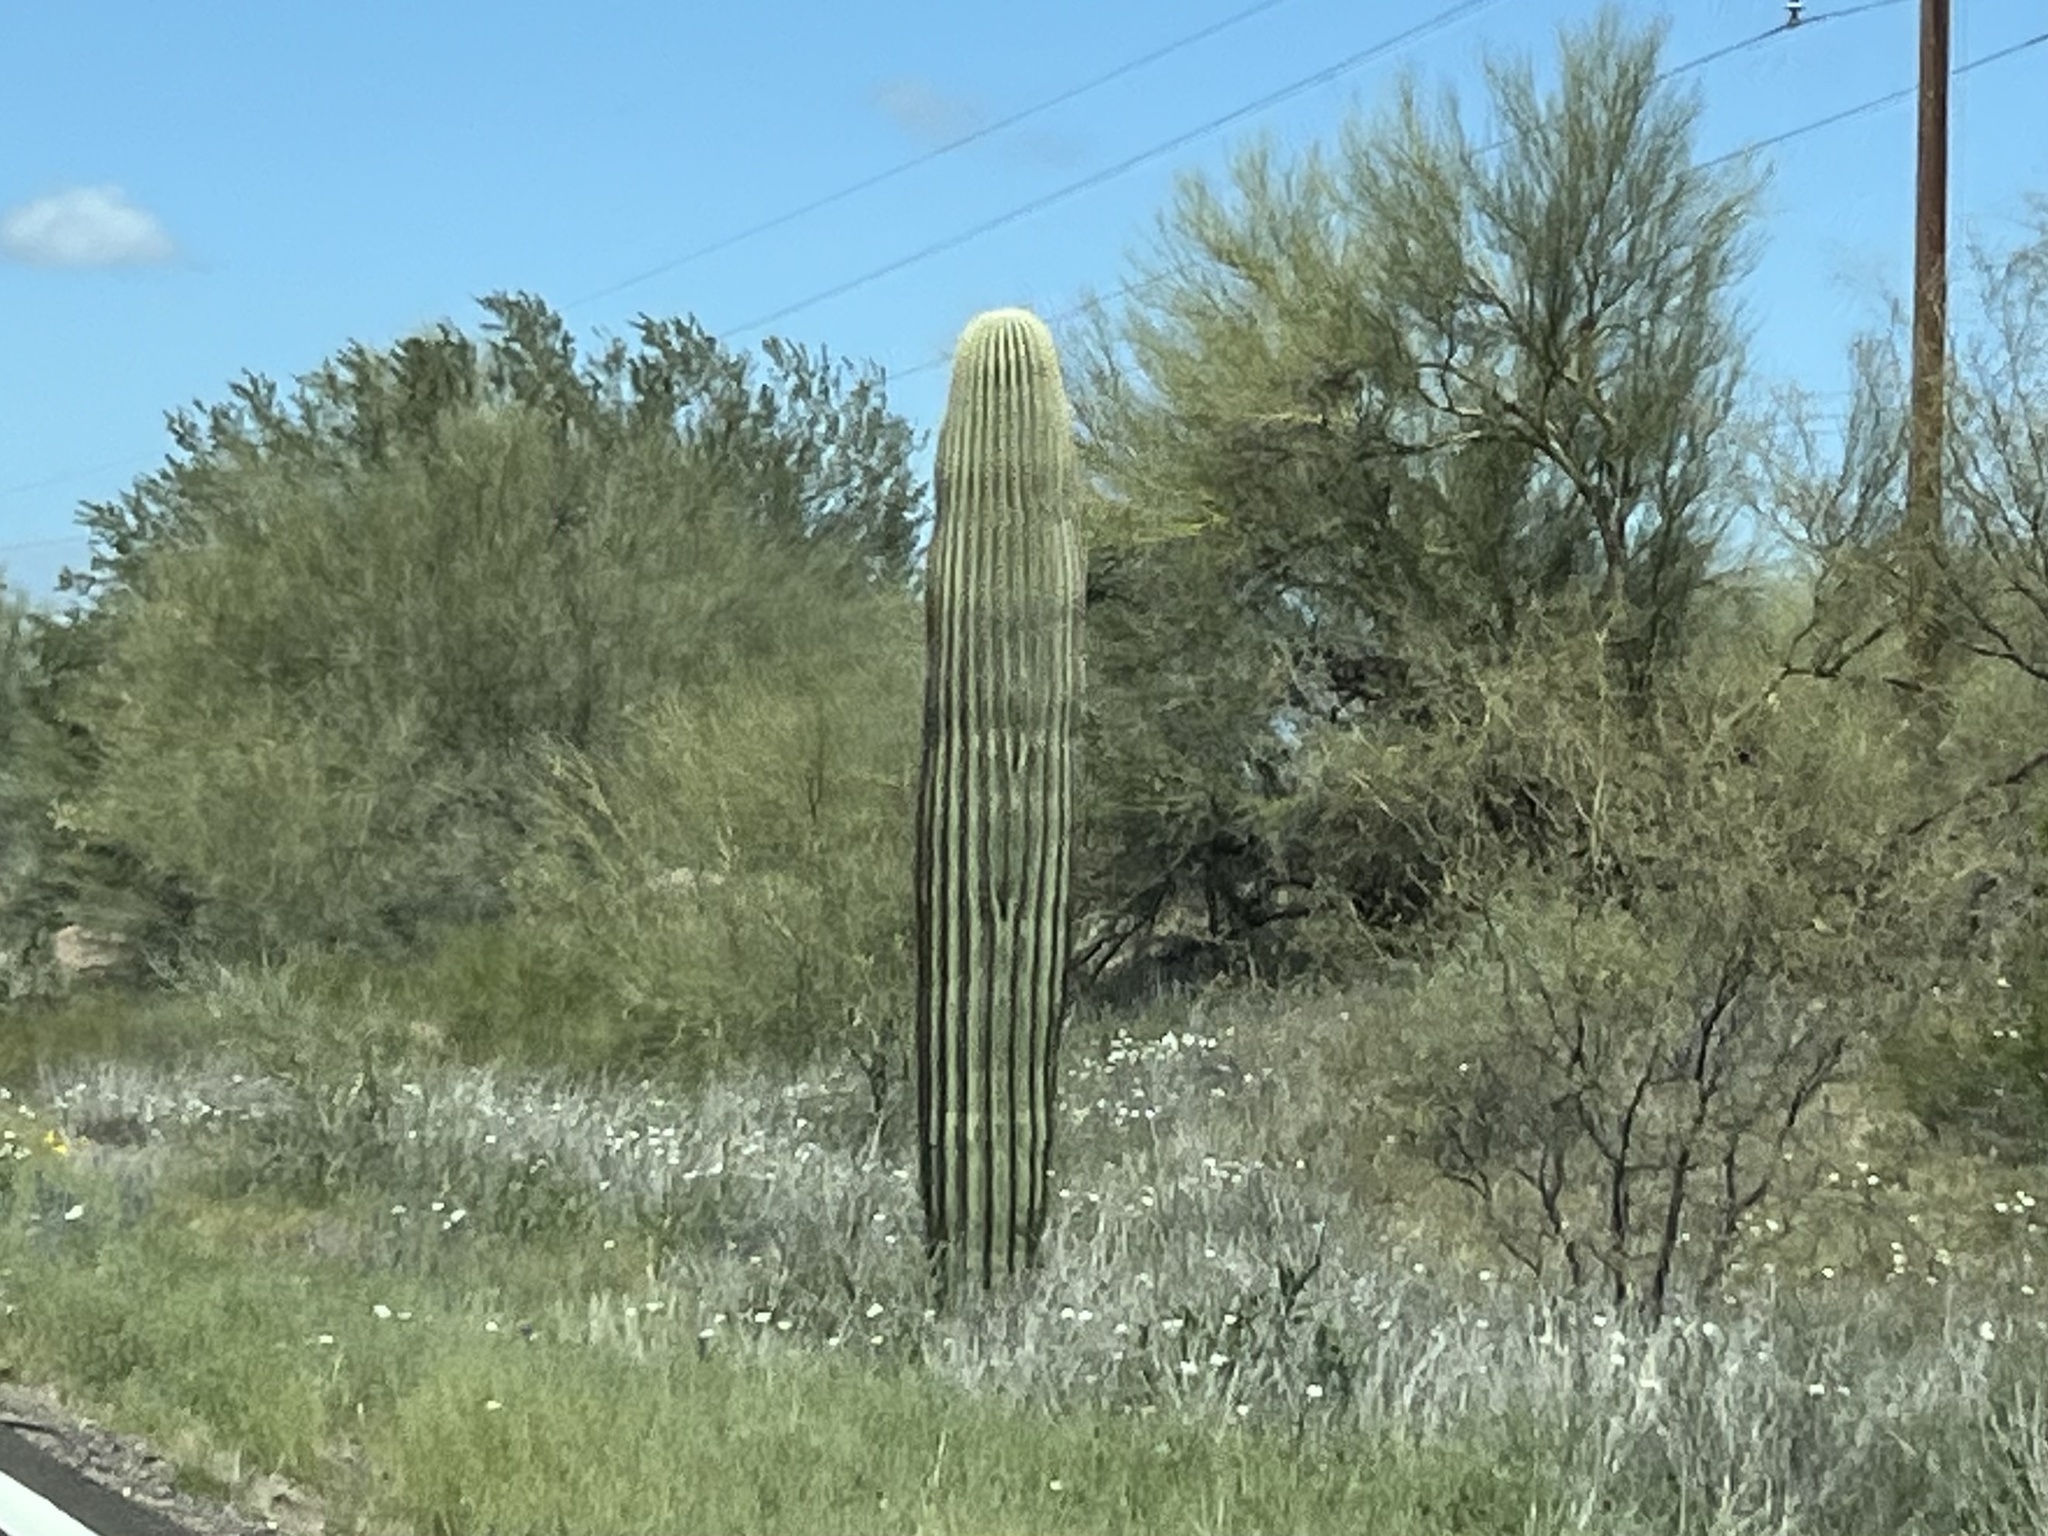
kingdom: Plantae
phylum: Tracheophyta
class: Magnoliopsida
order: Caryophyllales
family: Cactaceae
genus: Carnegiea
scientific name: Carnegiea gigantea
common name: Saguaro
